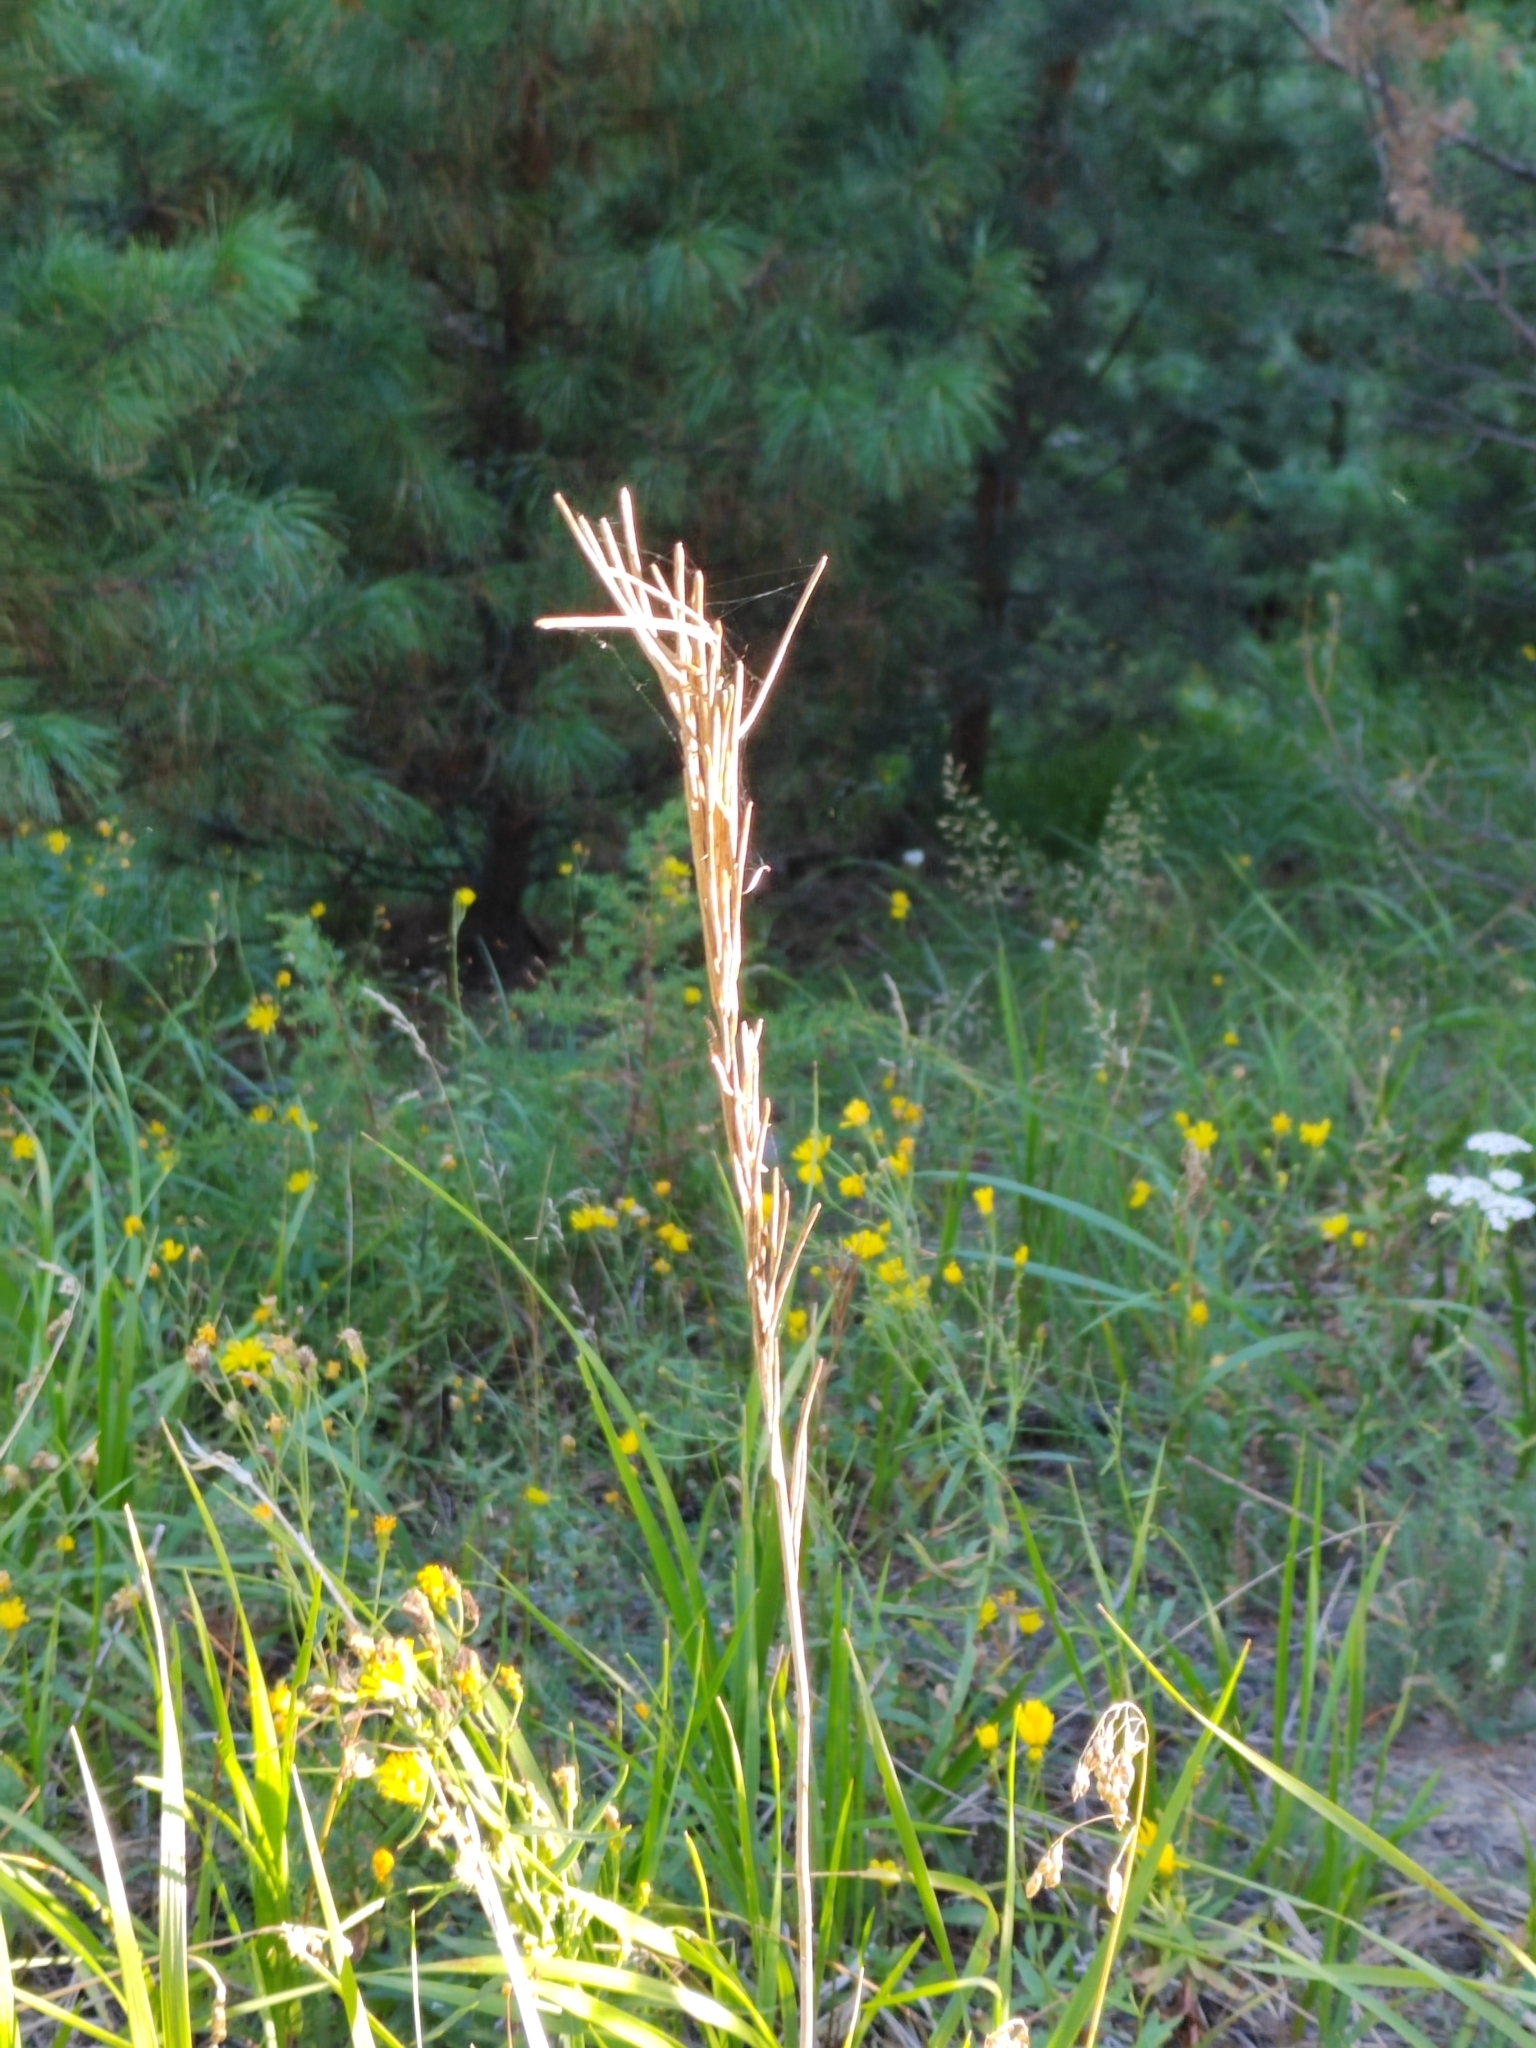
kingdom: Plantae
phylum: Tracheophyta
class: Magnoliopsida
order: Brassicales
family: Brassicaceae
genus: Turritis
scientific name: Turritis glabra
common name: Tower rockcress
